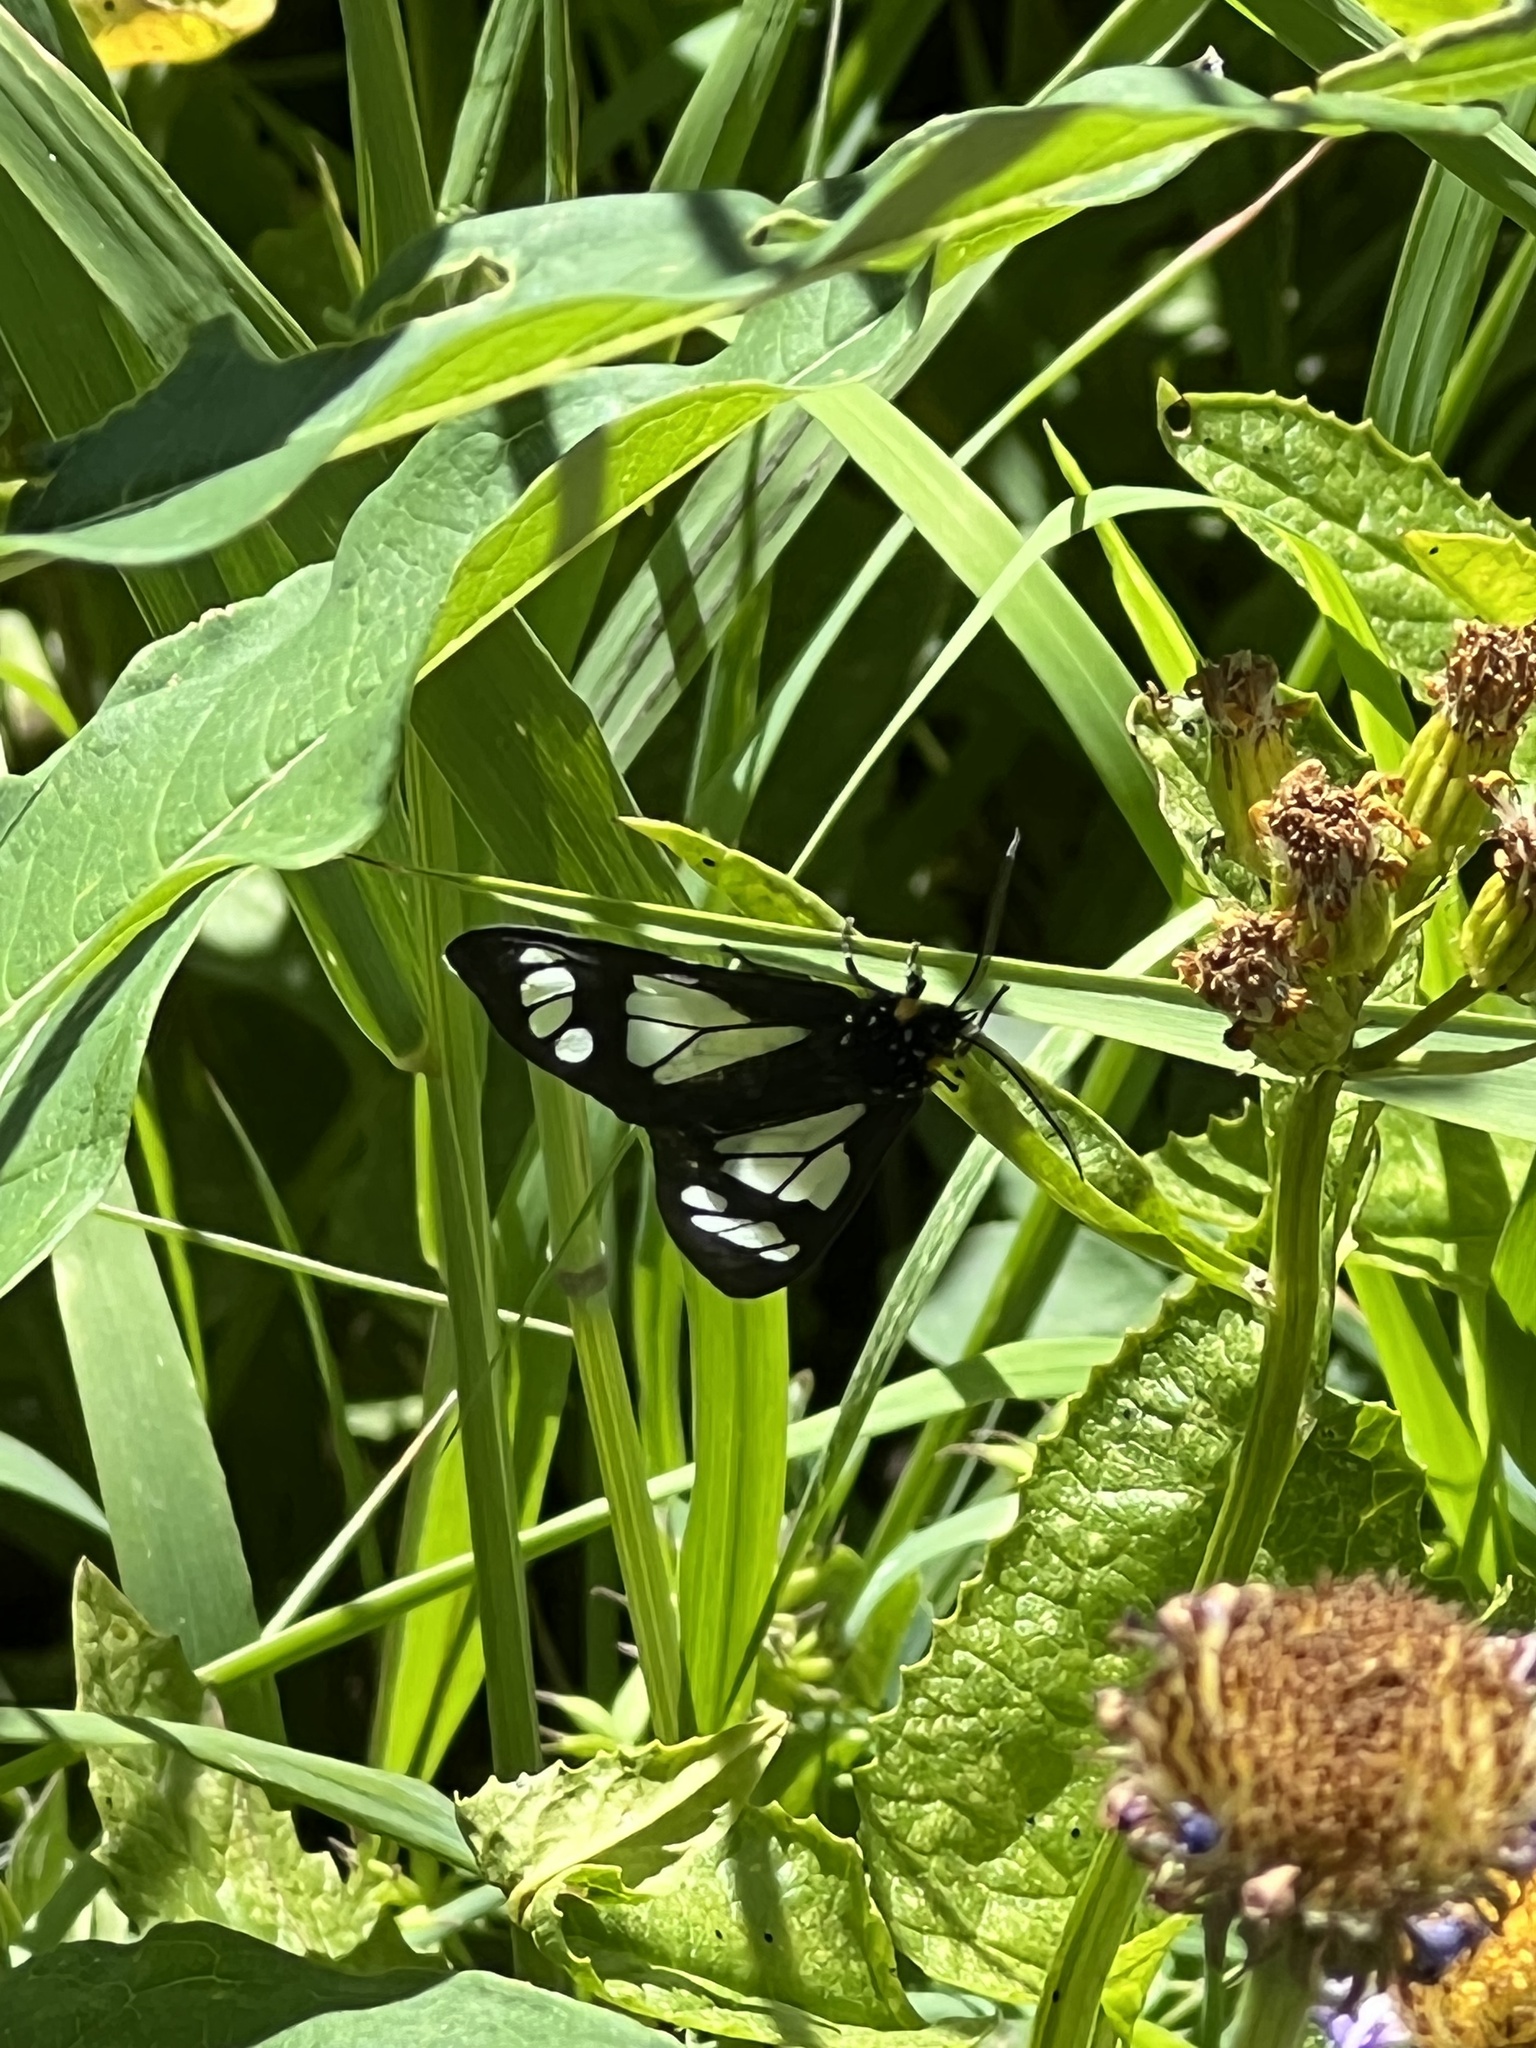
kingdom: Animalia
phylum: Arthropoda
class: Insecta
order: Lepidoptera
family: Erebidae
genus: Gnophaela
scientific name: Gnophaela vermiculata
